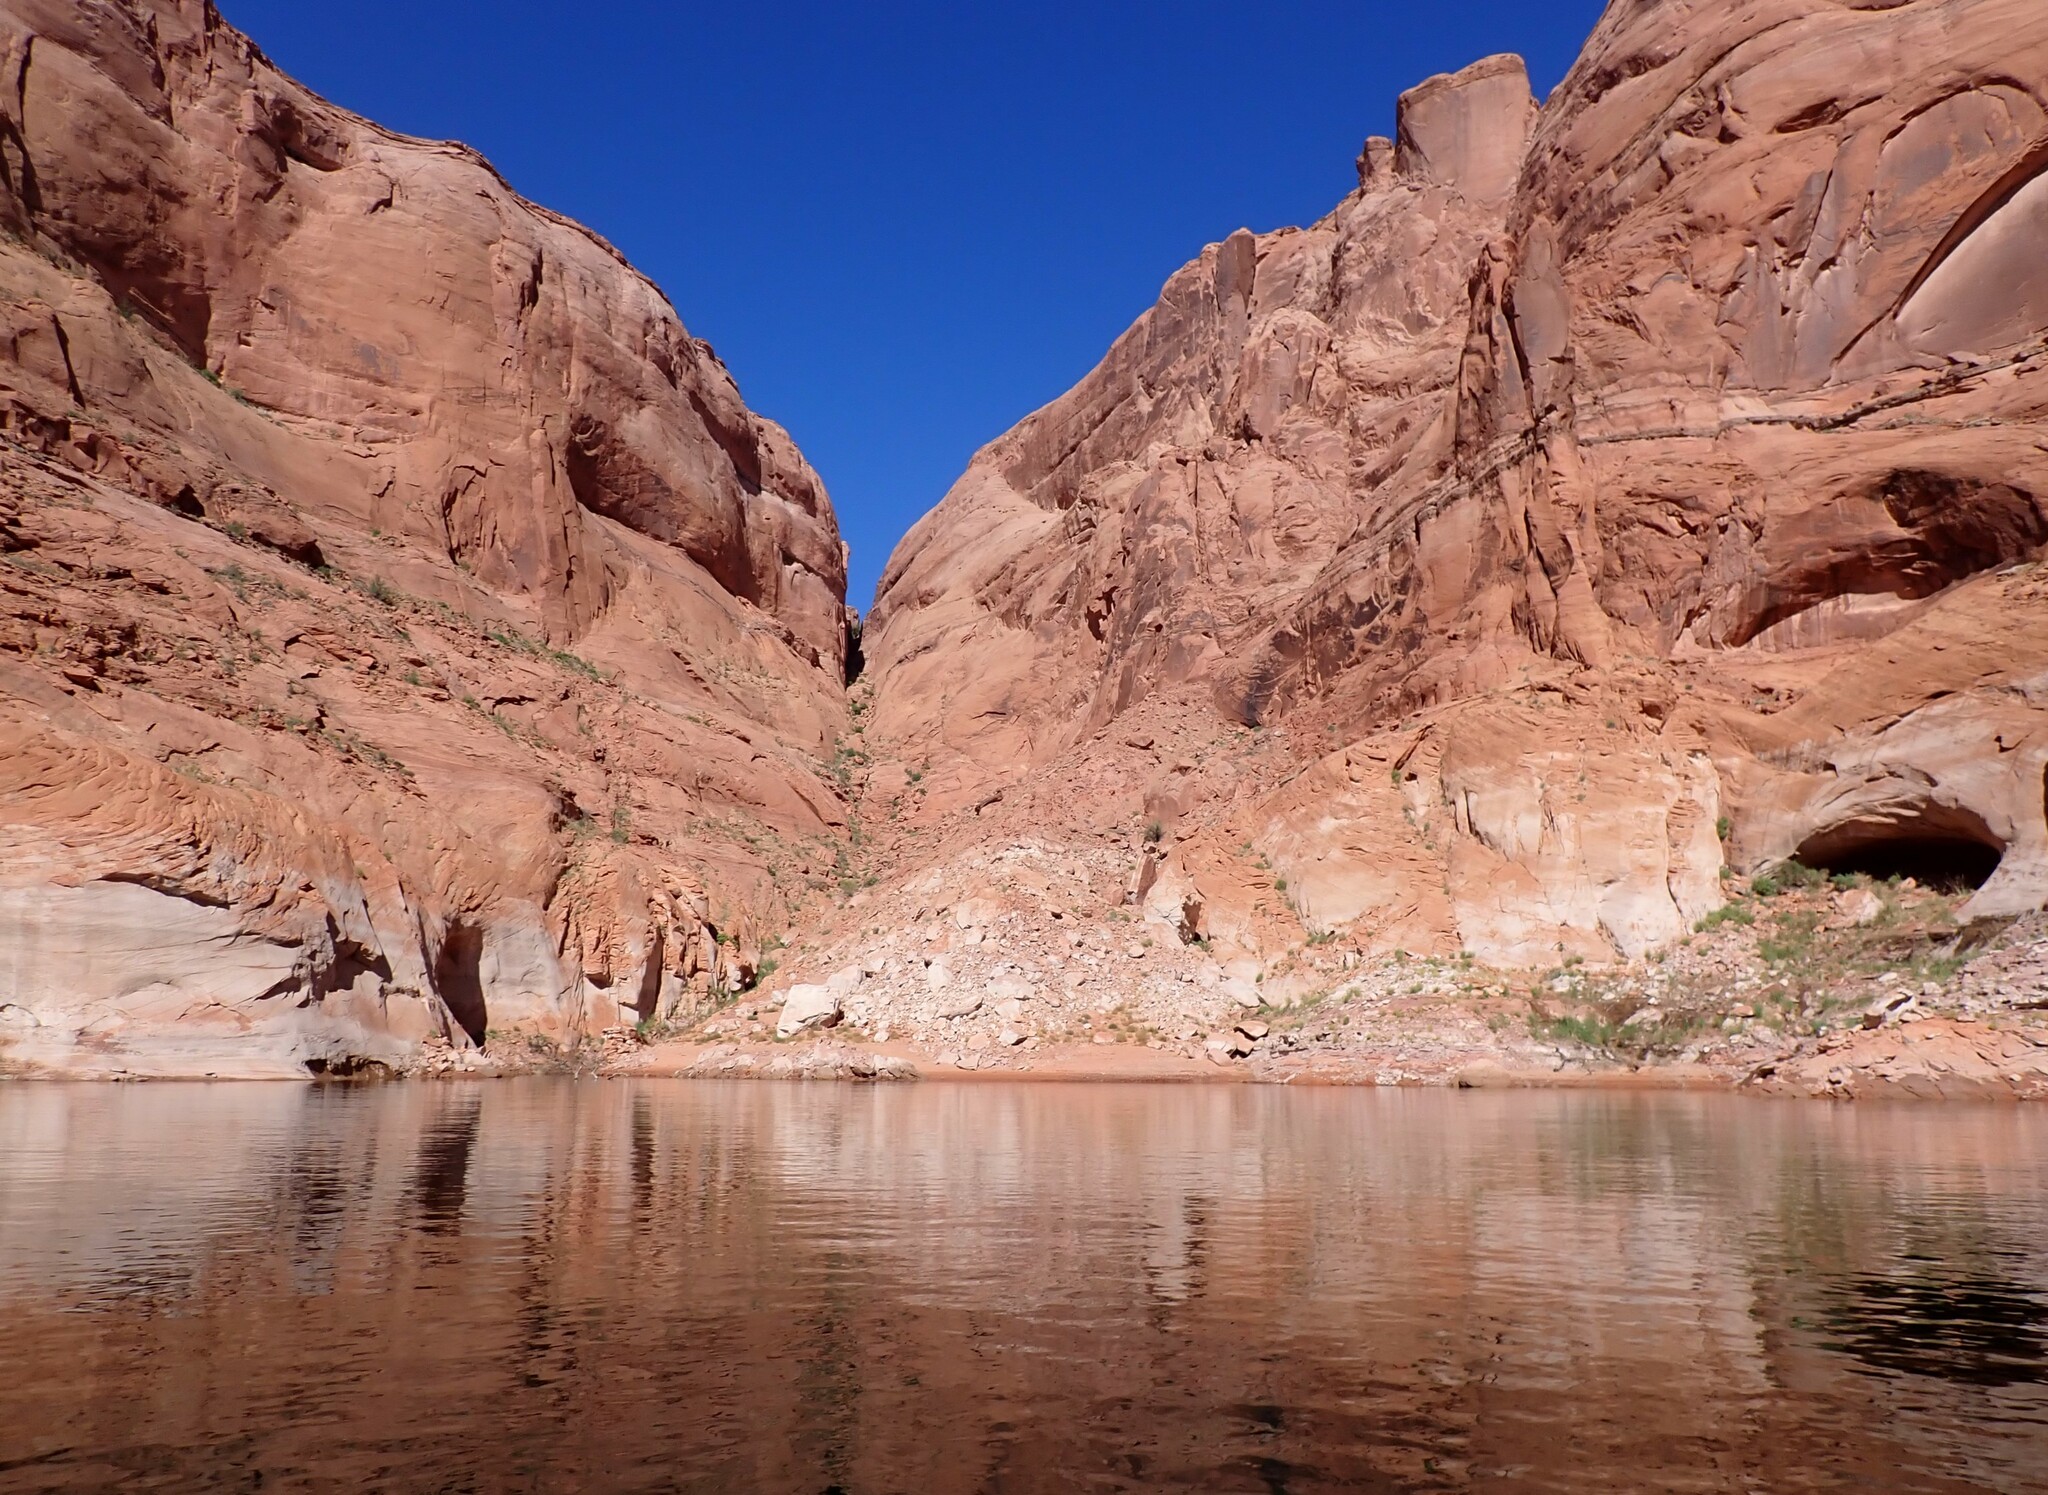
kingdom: Animalia
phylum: Chordata
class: Squamata
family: Phrynosomatidae
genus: Uta
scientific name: Uta stansburiana
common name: Side-blotched lizard
